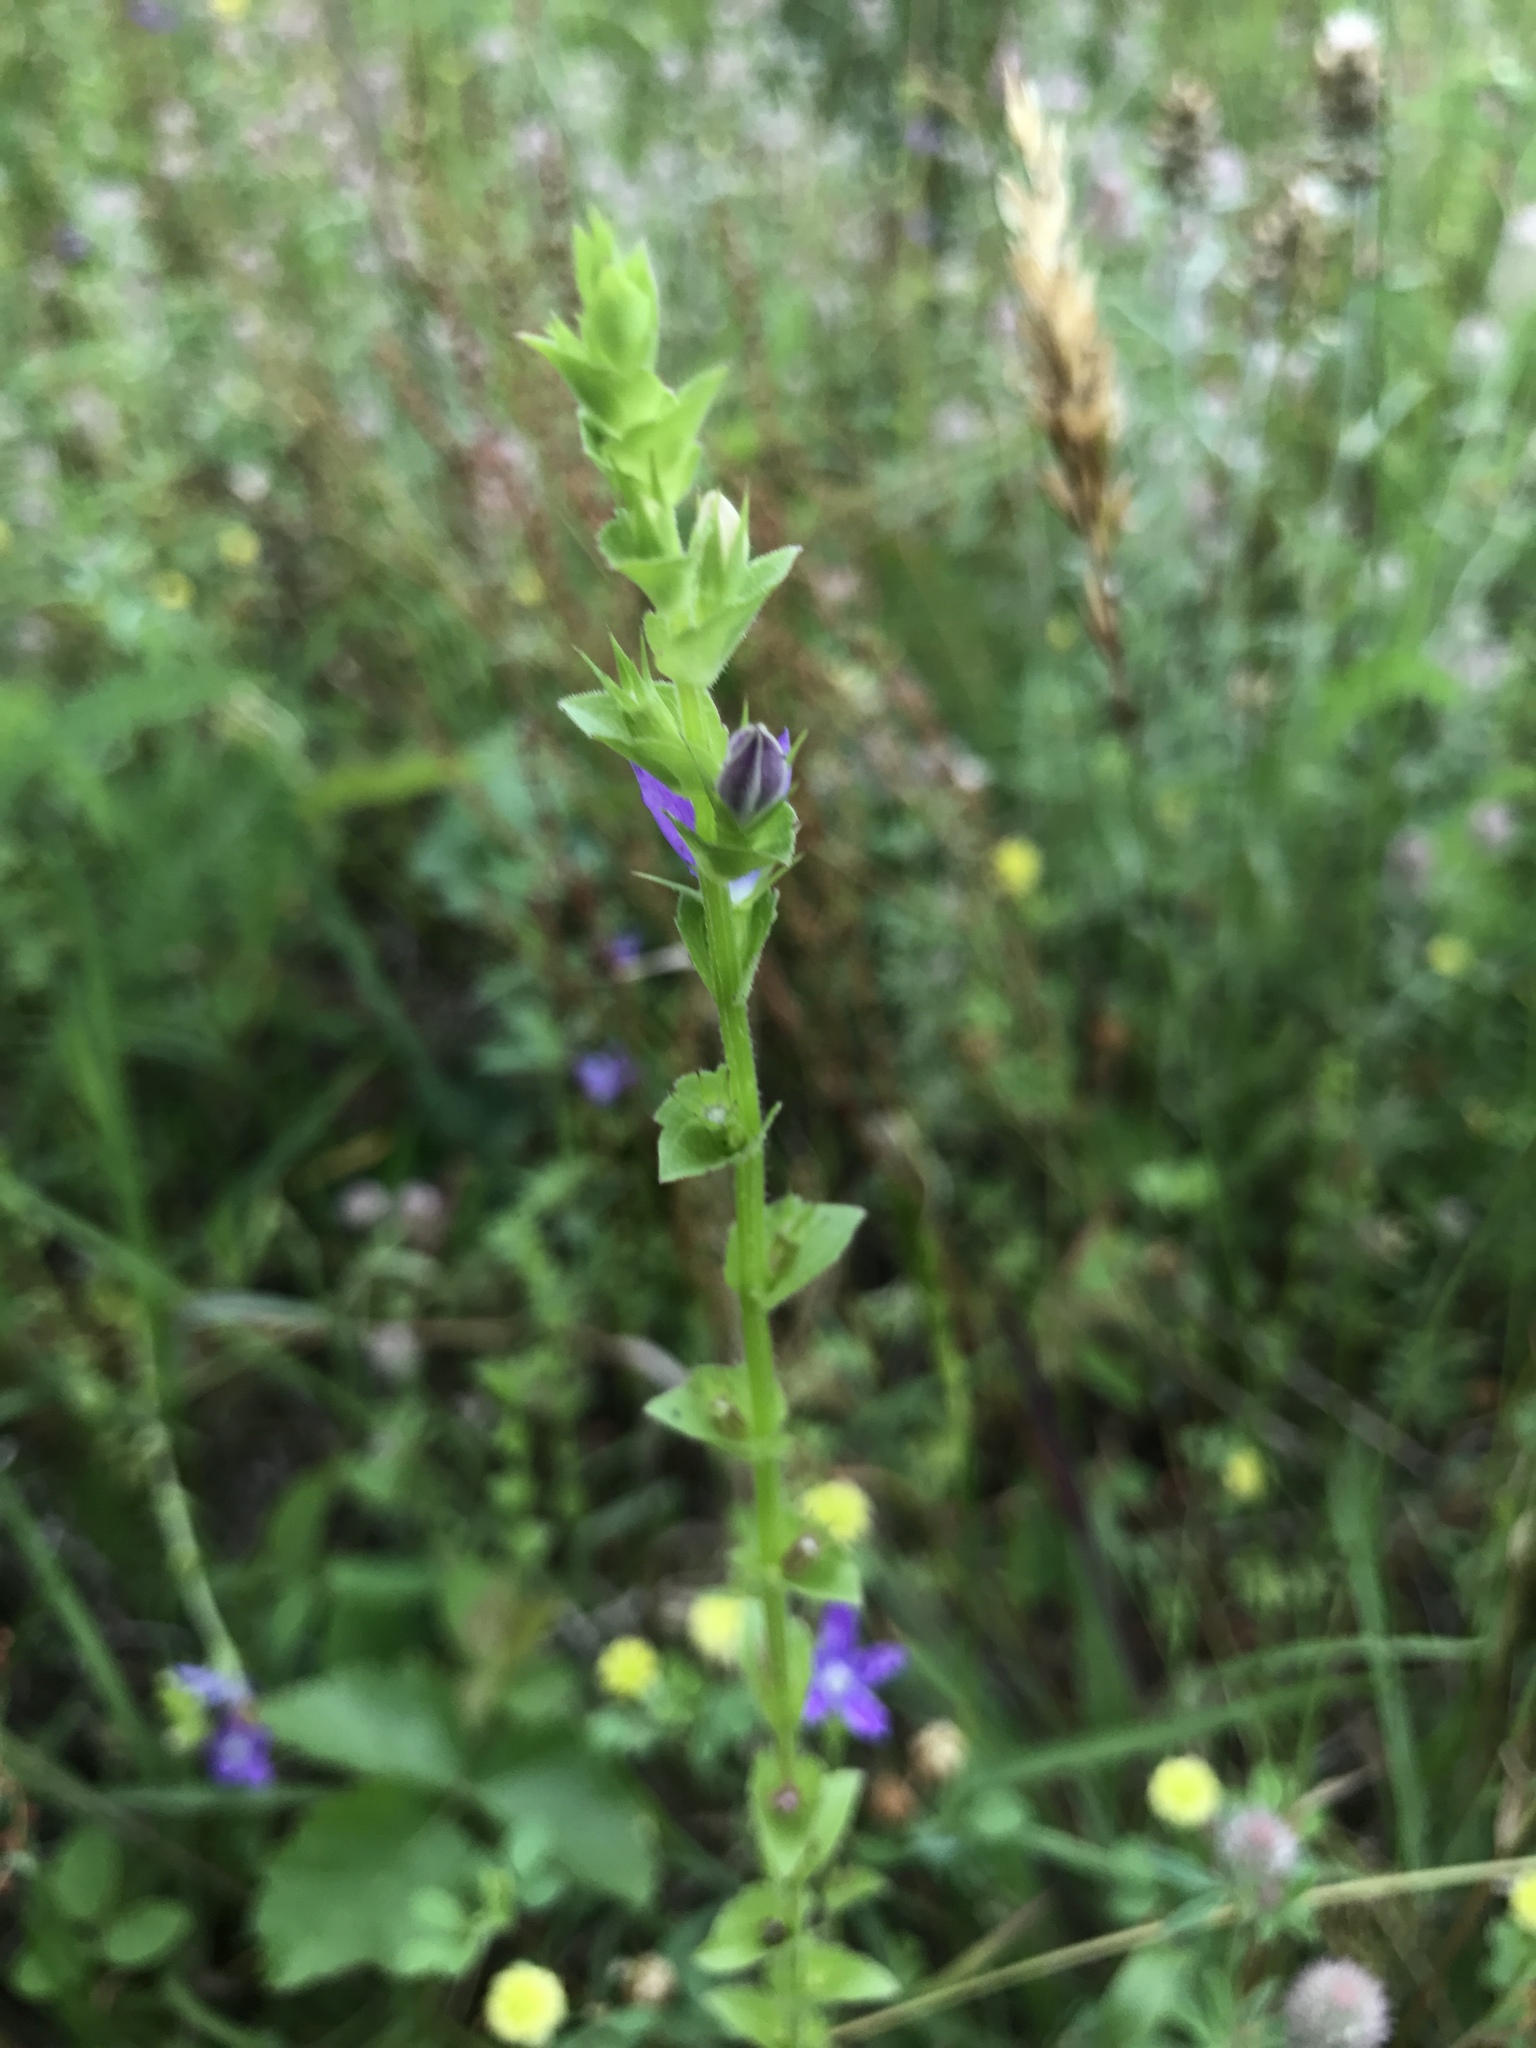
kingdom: Plantae
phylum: Tracheophyta
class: Magnoliopsida
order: Asterales
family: Campanulaceae
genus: Triodanis
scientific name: Triodanis perfoliata
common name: Clasping venus' looking-glass
